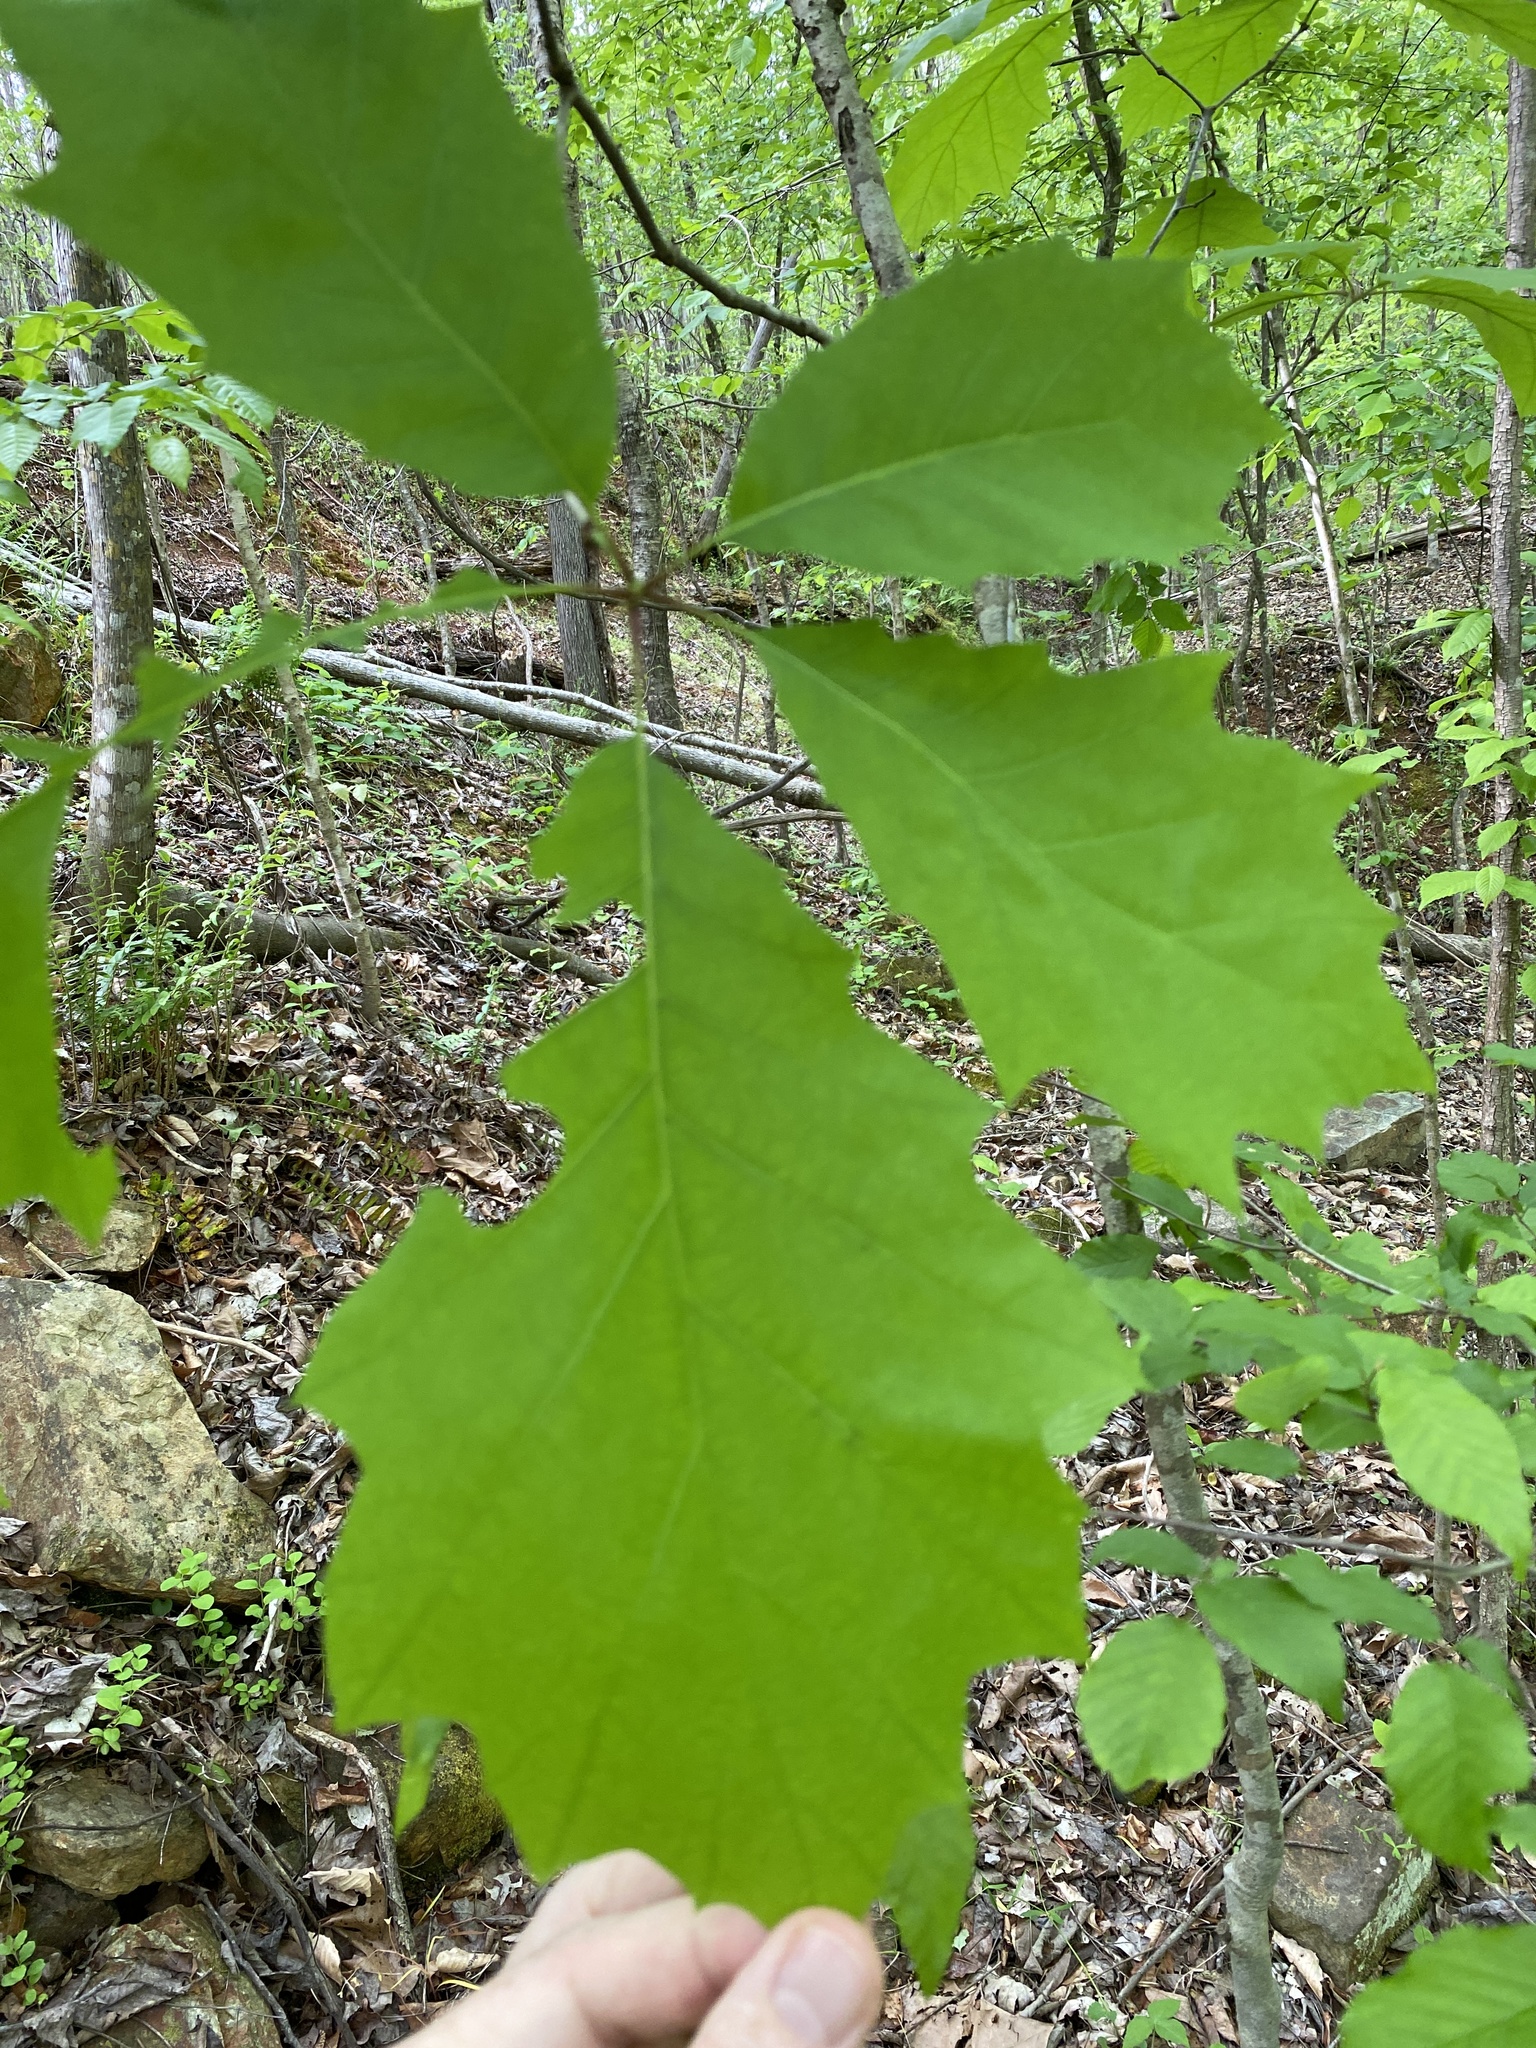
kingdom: Plantae
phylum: Tracheophyta
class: Magnoliopsida
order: Fagales
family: Fagaceae
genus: Quercus
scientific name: Quercus rubra
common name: Red oak
